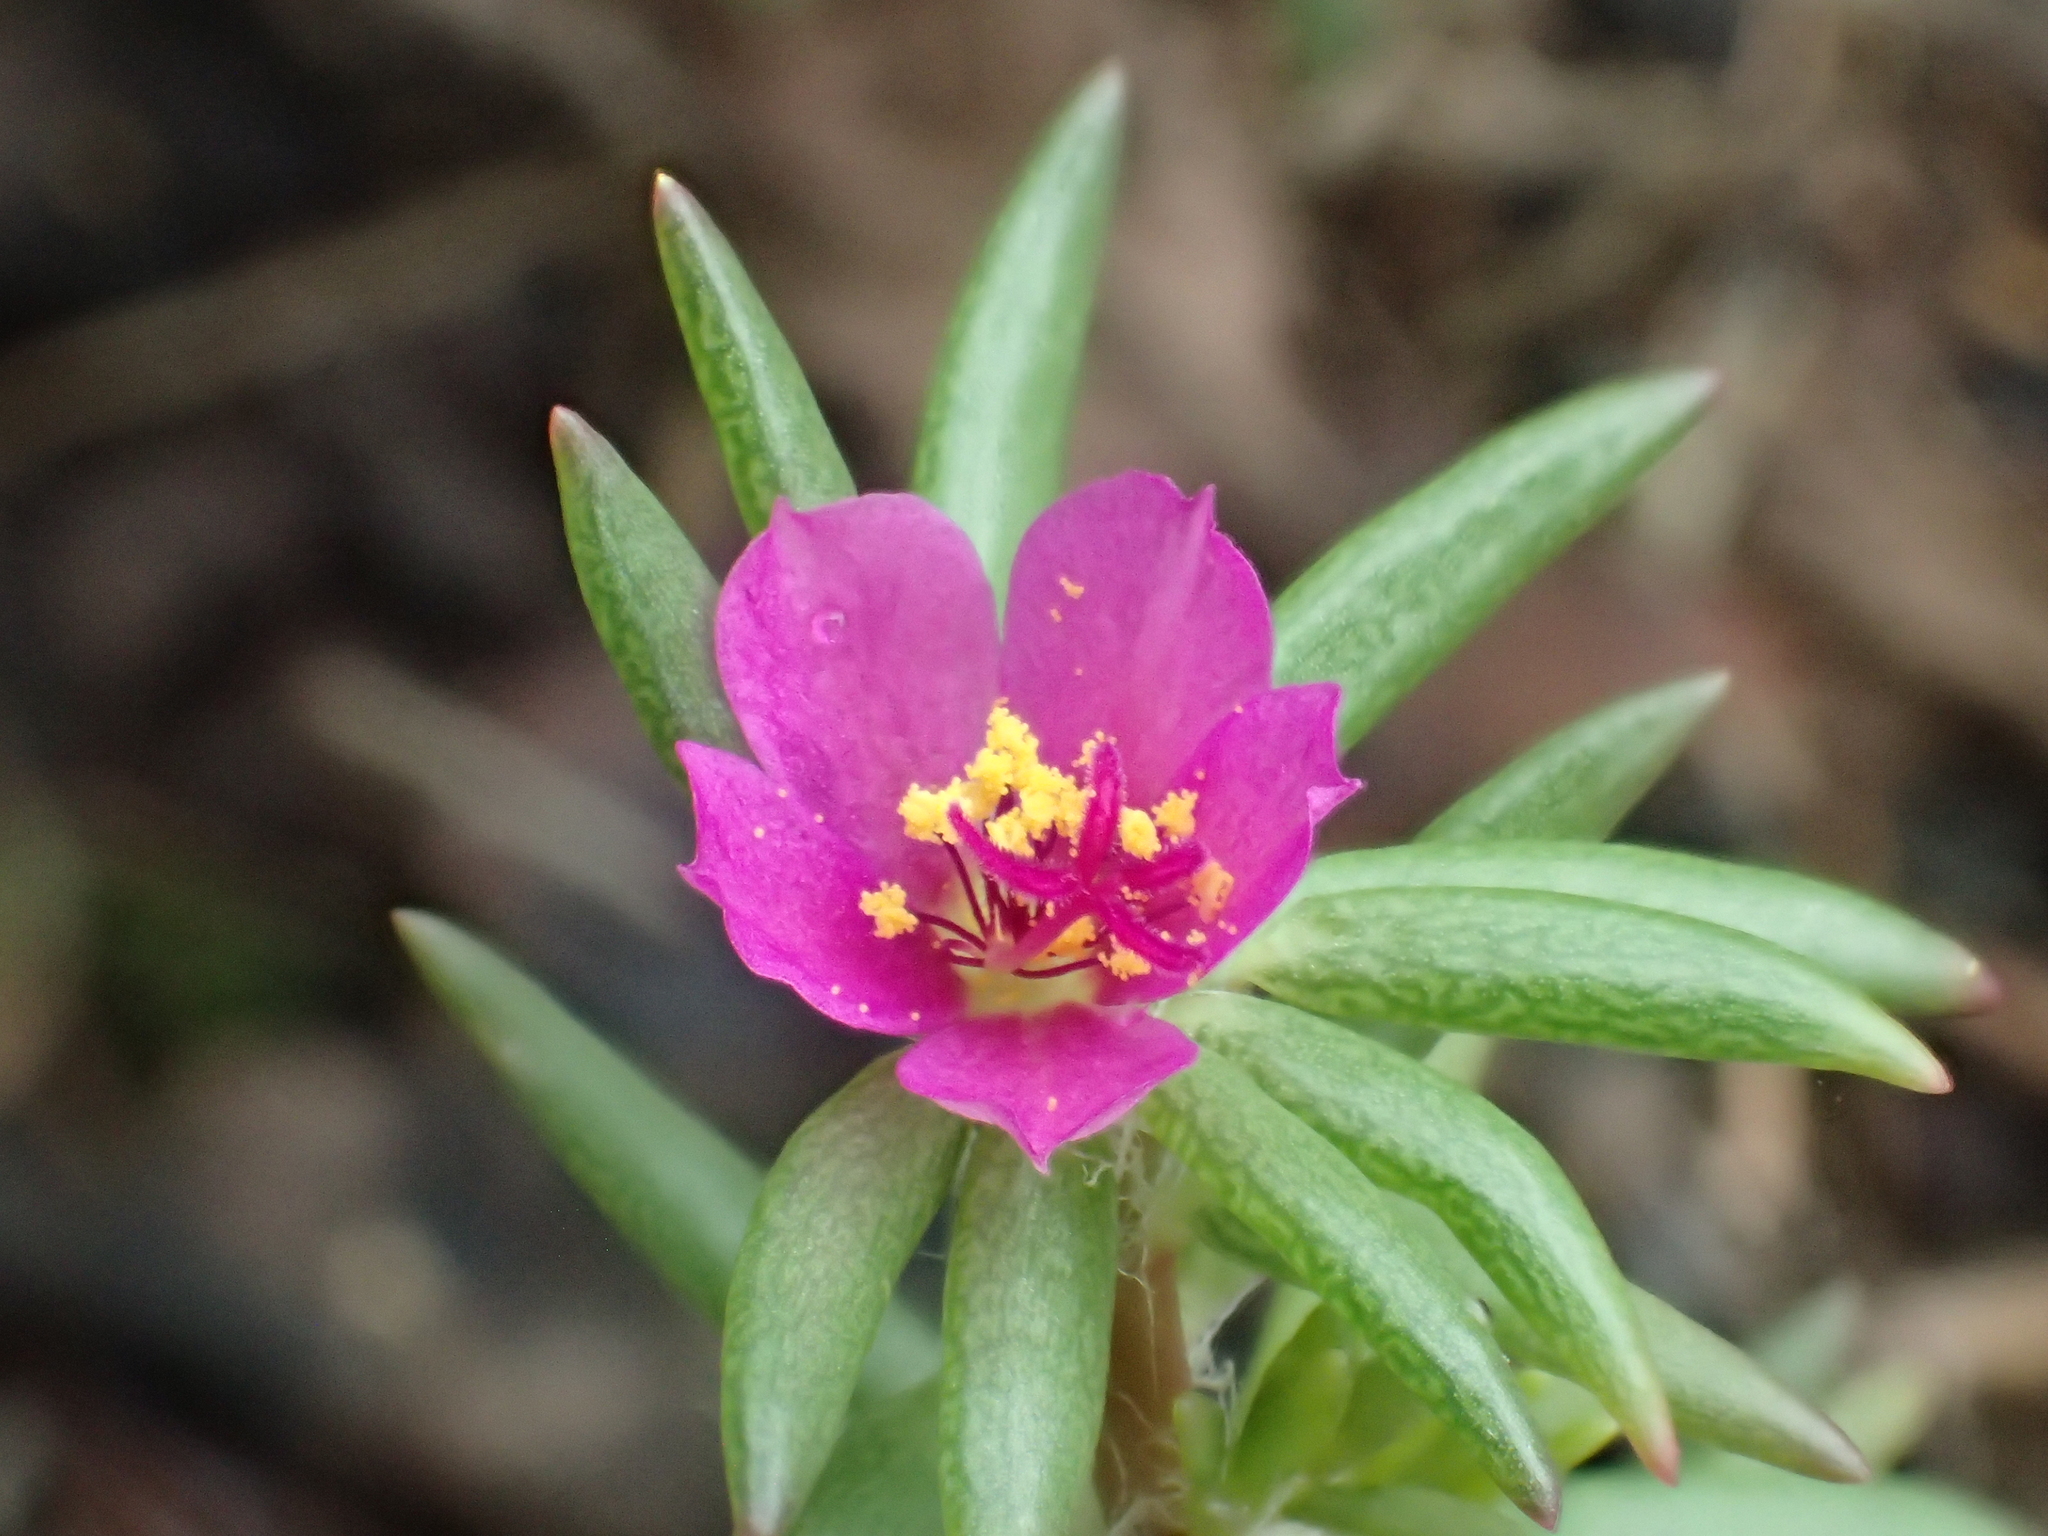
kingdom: Plantae
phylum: Tracheophyta
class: Magnoliopsida
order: Caryophyllales
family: Portulacaceae
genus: Portulaca
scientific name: Portulaca pilosa
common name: Kiss me quick
